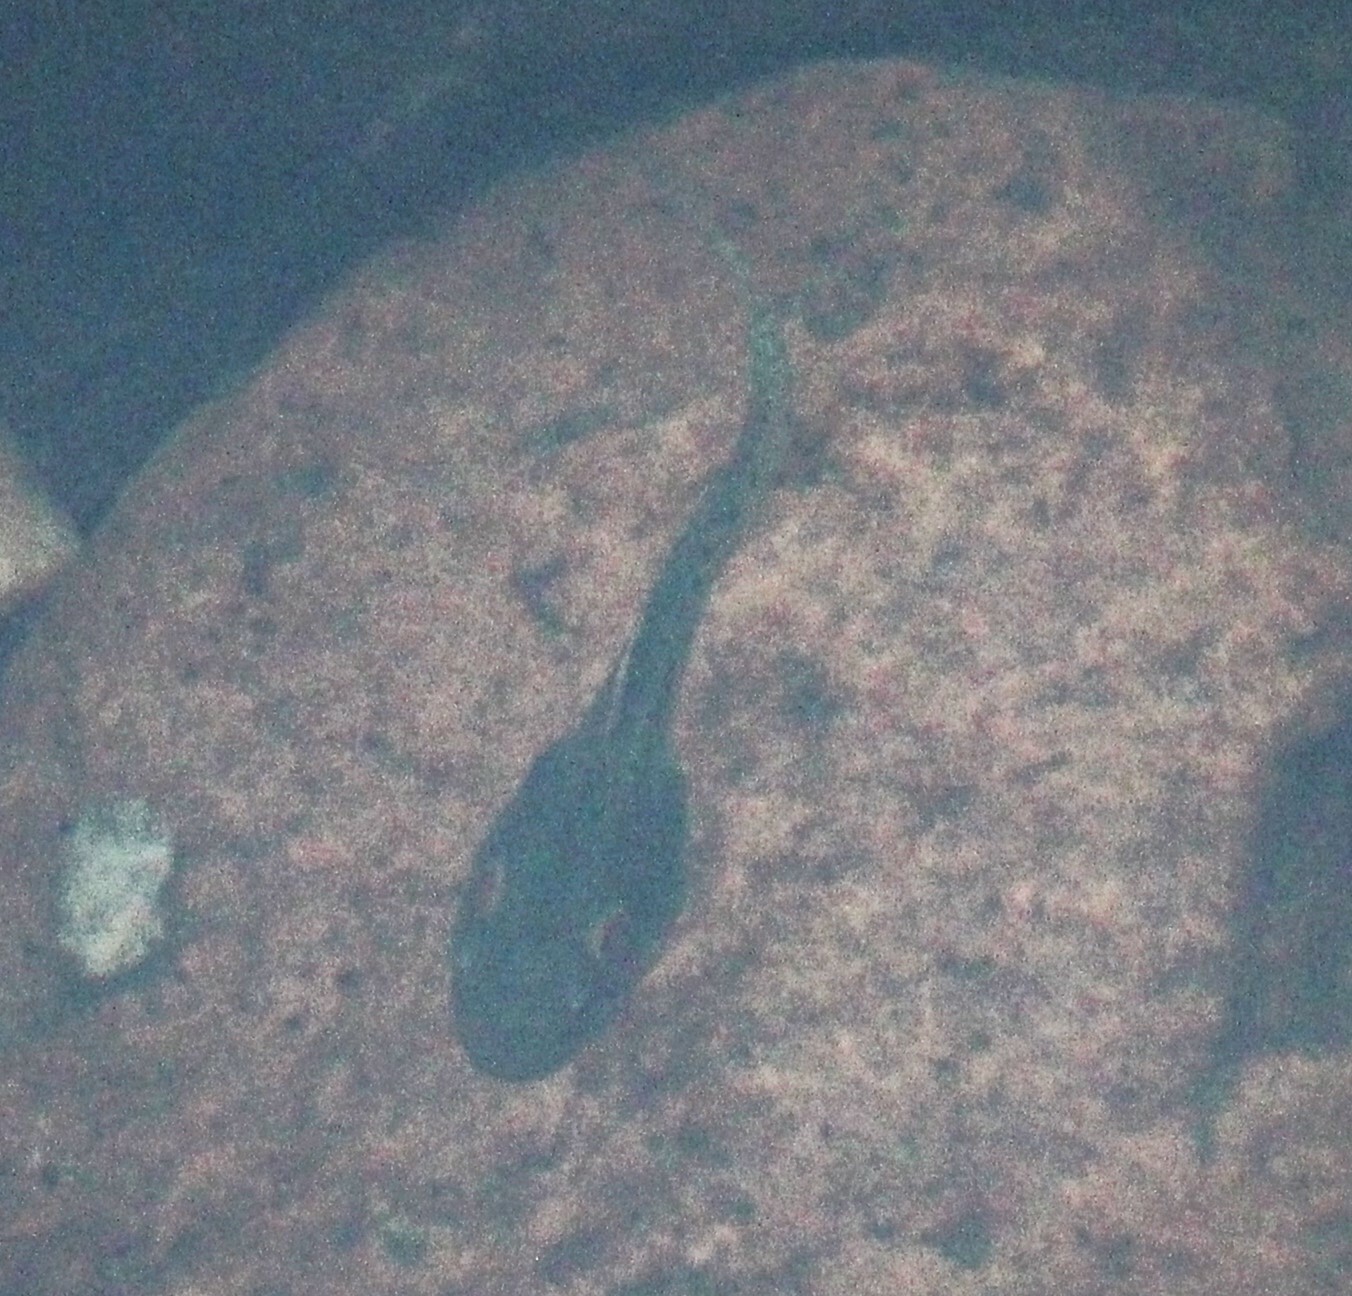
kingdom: Animalia
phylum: Chordata
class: Amphibia
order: Anura
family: Ranidae
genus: Clinotarsus
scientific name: Clinotarsus curtipes
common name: Bicoloured frog
